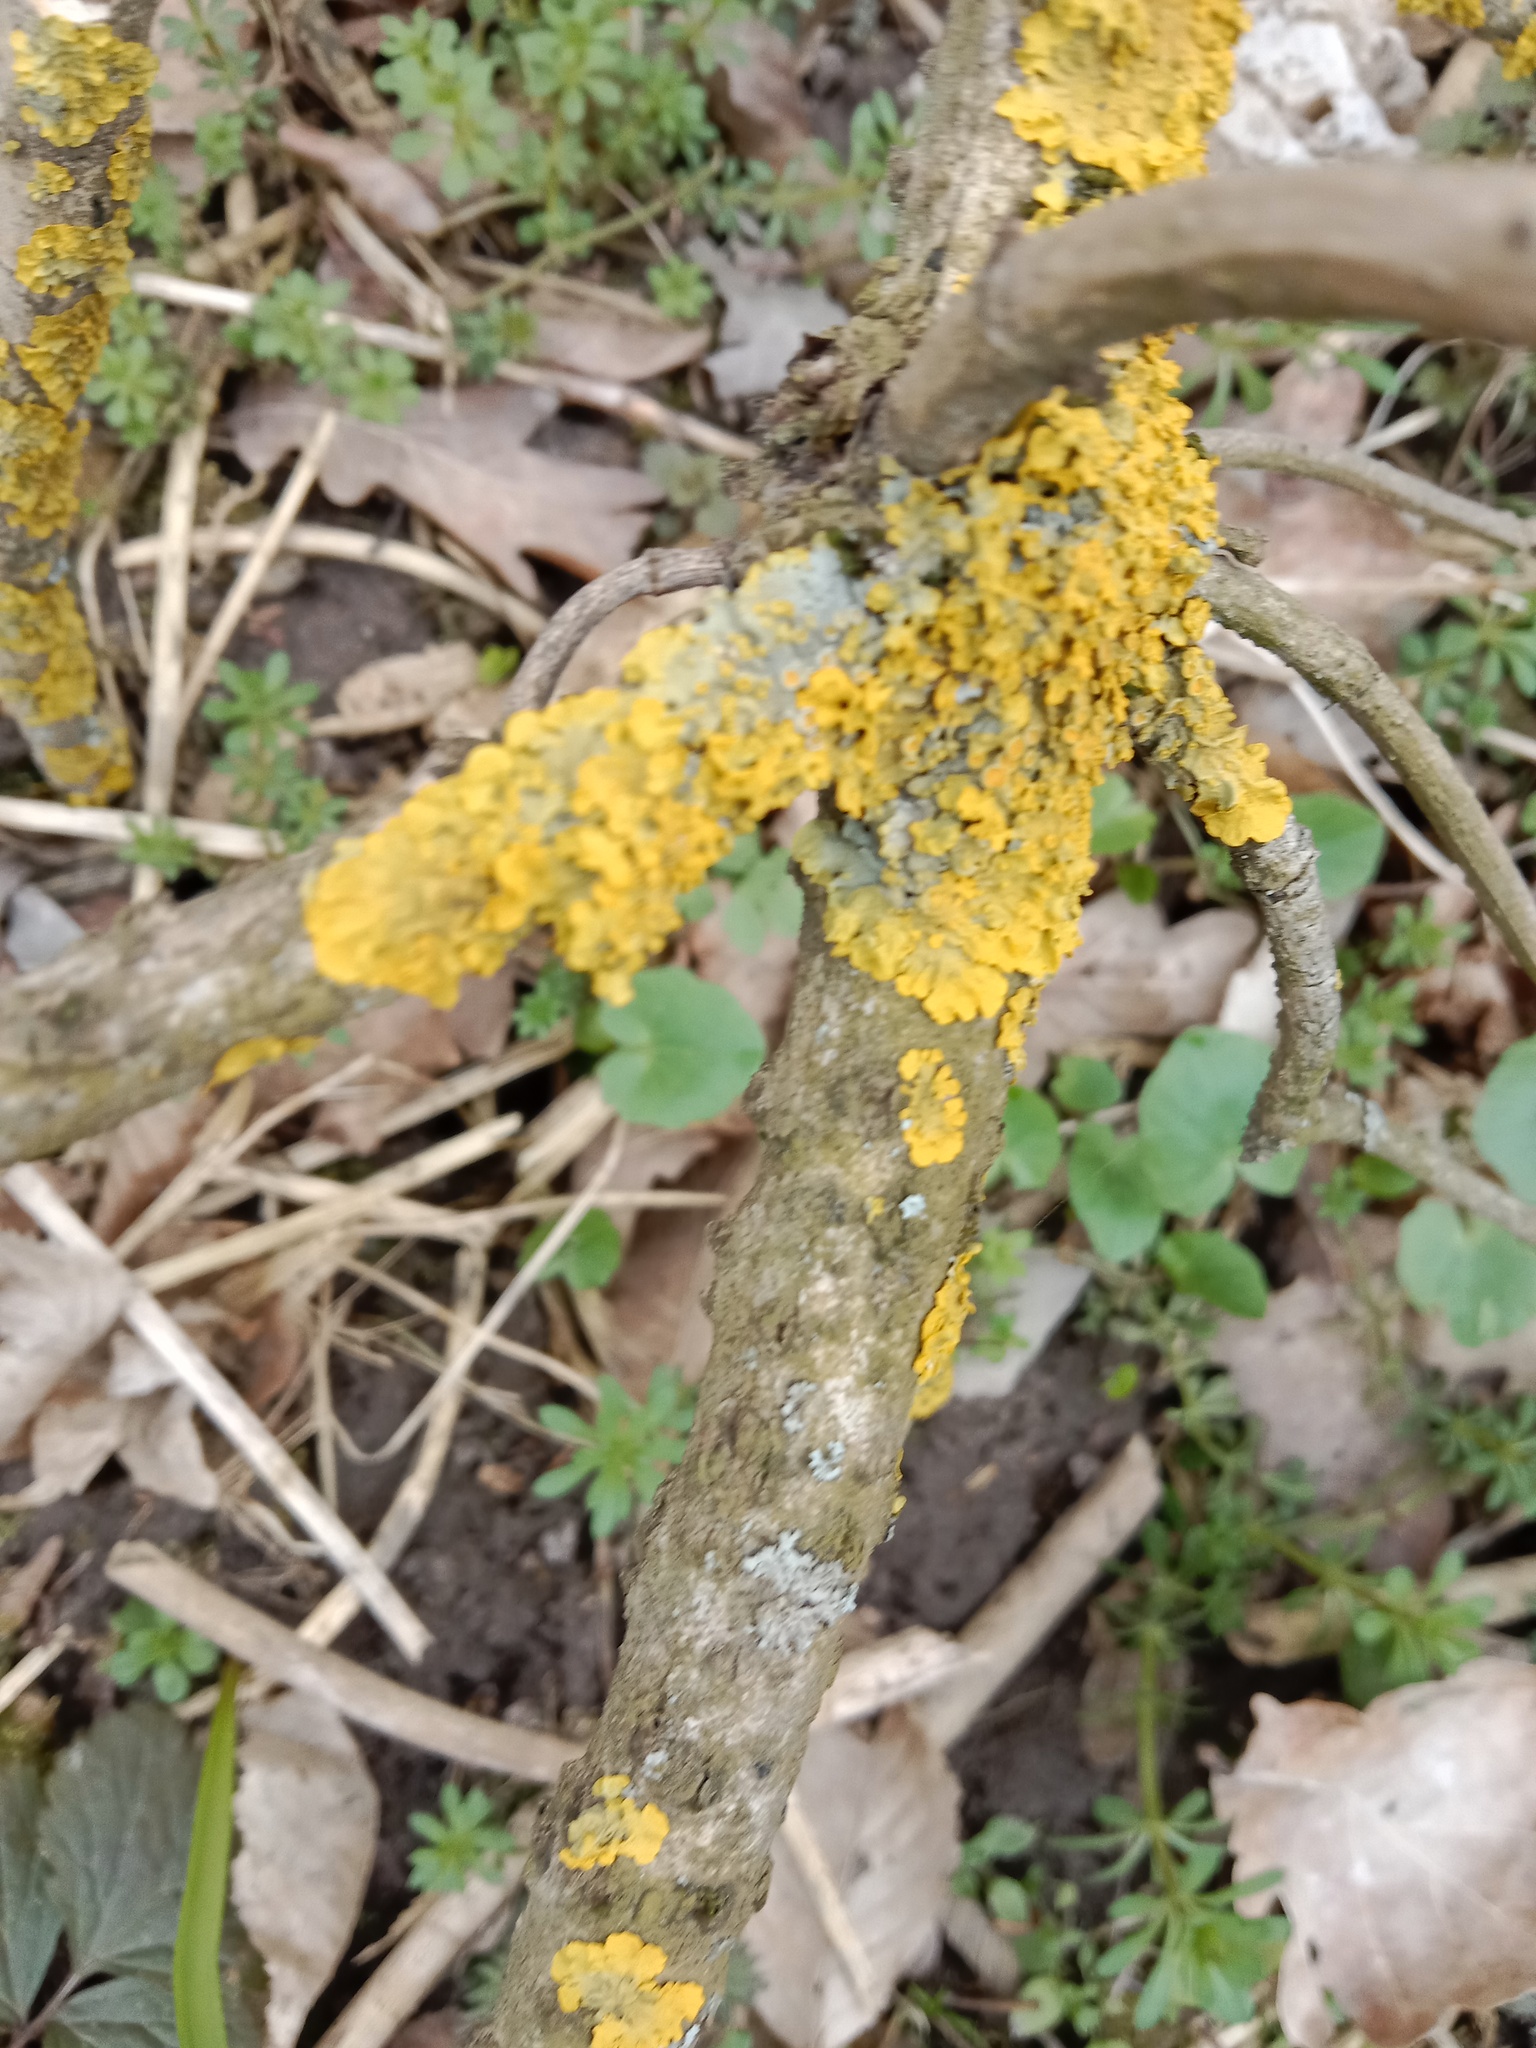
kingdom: Fungi
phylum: Ascomycota
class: Lecanoromycetes
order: Teloschistales
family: Teloschistaceae
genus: Xanthoria
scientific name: Xanthoria parietina
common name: Common orange lichen
